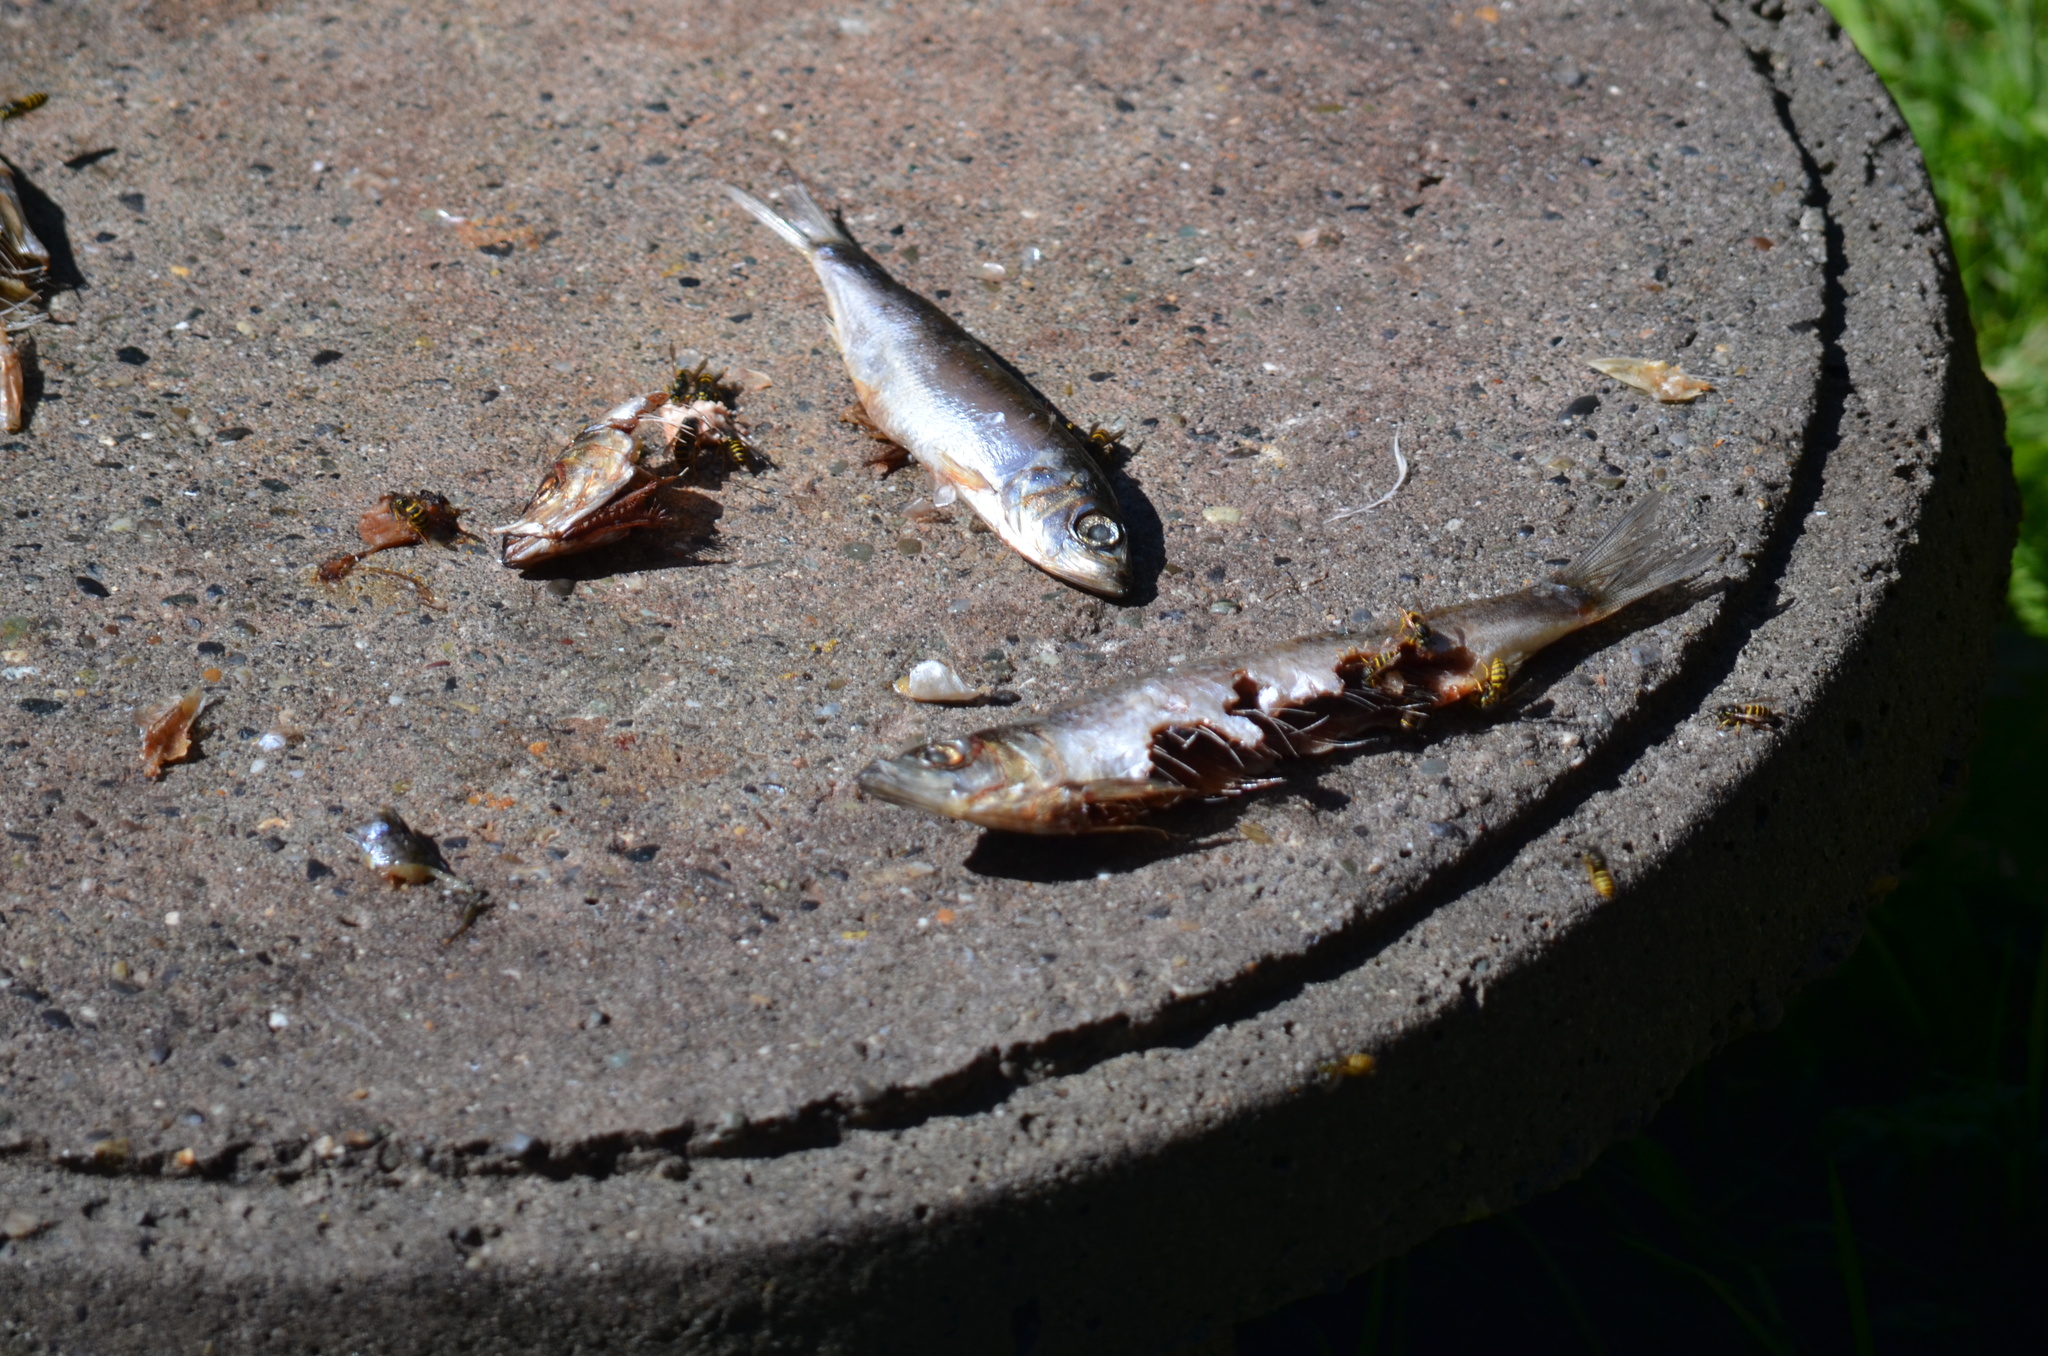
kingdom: Animalia
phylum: Arthropoda
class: Insecta
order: Hymenoptera
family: Vespidae
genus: Vespula
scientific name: Vespula
